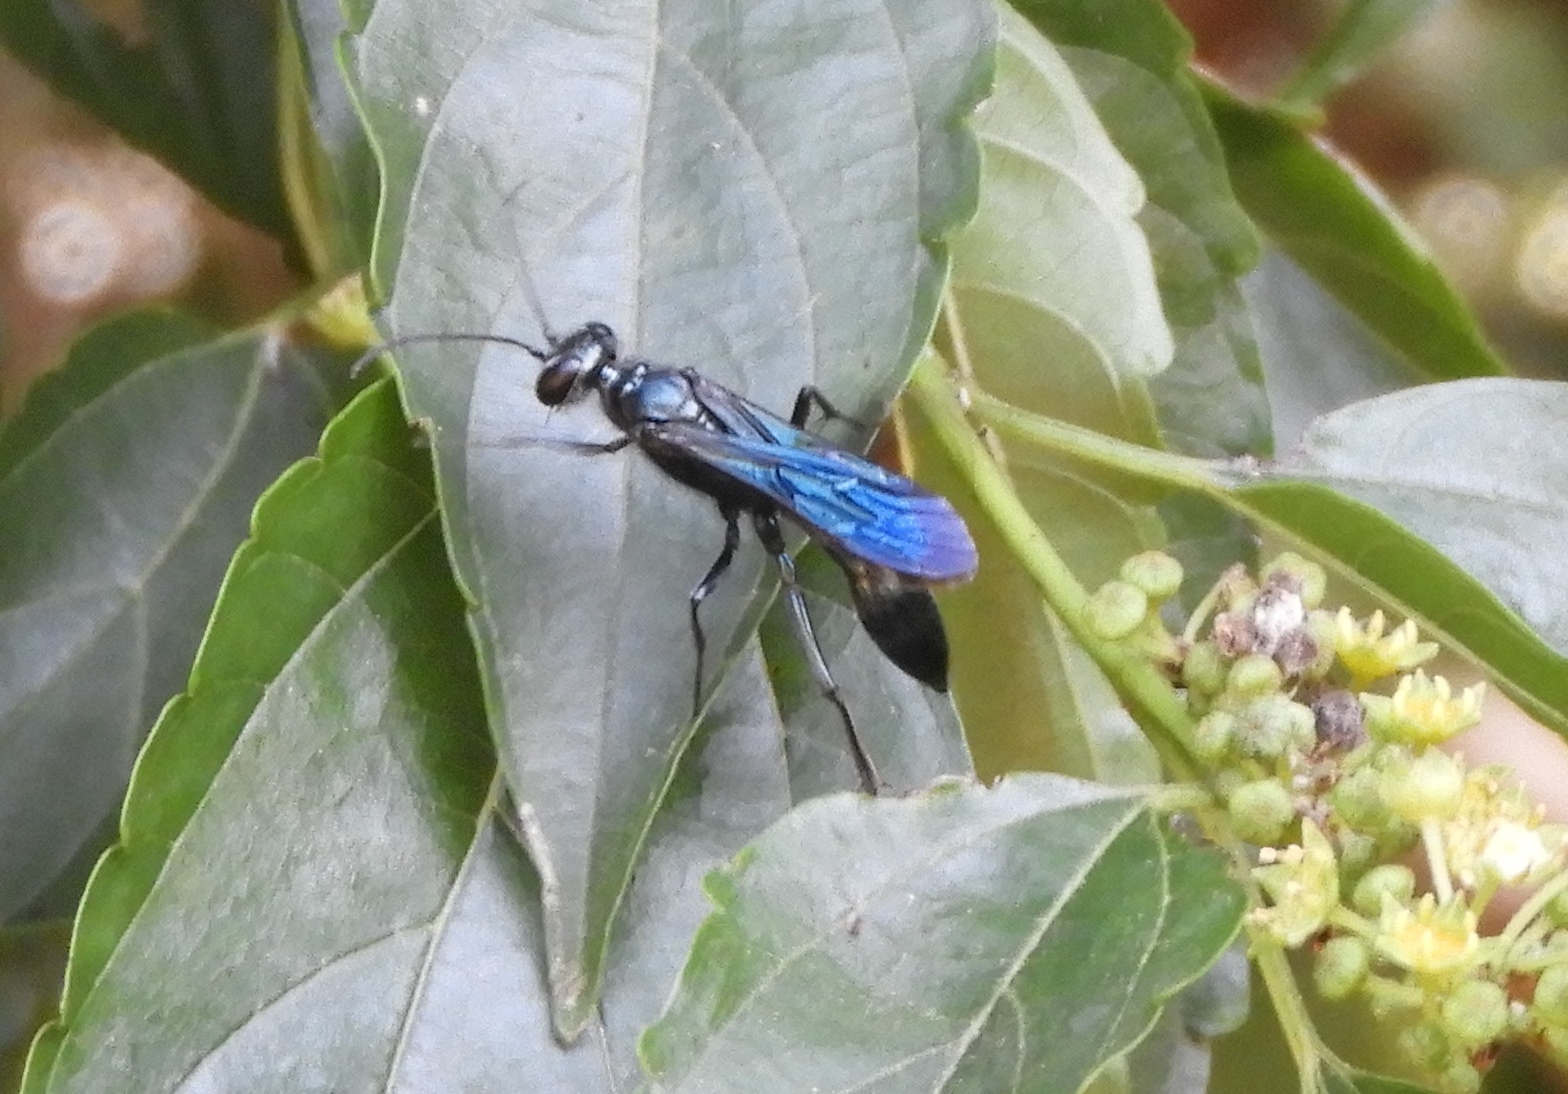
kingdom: Animalia
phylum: Arthropoda
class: Insecta
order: Hymenoptera
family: Sphecidae
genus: Chalybion
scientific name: Chalybion
